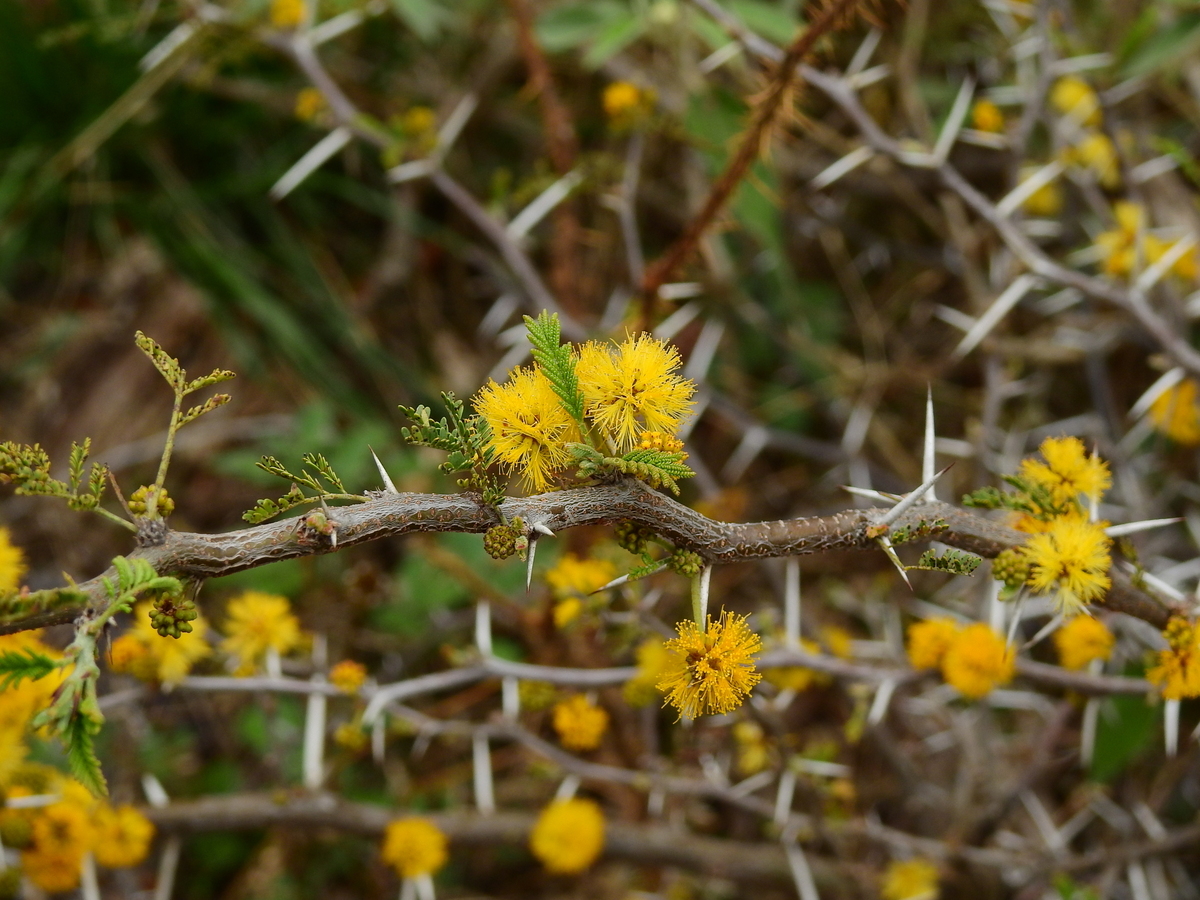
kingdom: Plantae
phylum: Tracheophyta
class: Magnoliopsida
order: Fabales
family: Fabaceae
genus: Vachellia
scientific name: Vachellia caven
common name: Roman cassie
